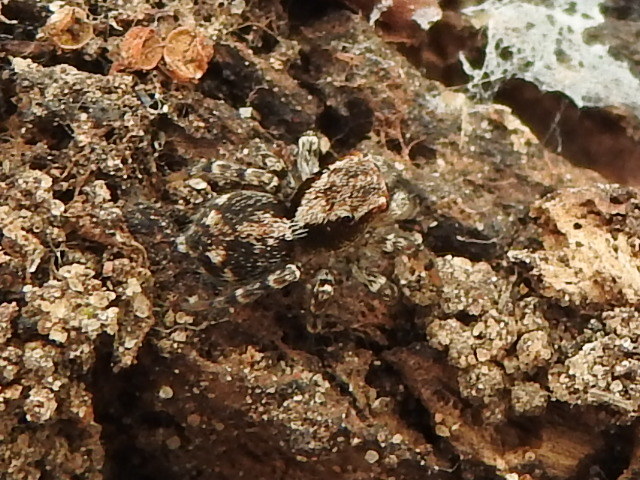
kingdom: Animalia
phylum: Arthropoda
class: Arachnida
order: Araneae
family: Salticidae
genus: Naphrys
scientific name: Naphrys pulex
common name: Flea jumping spider
